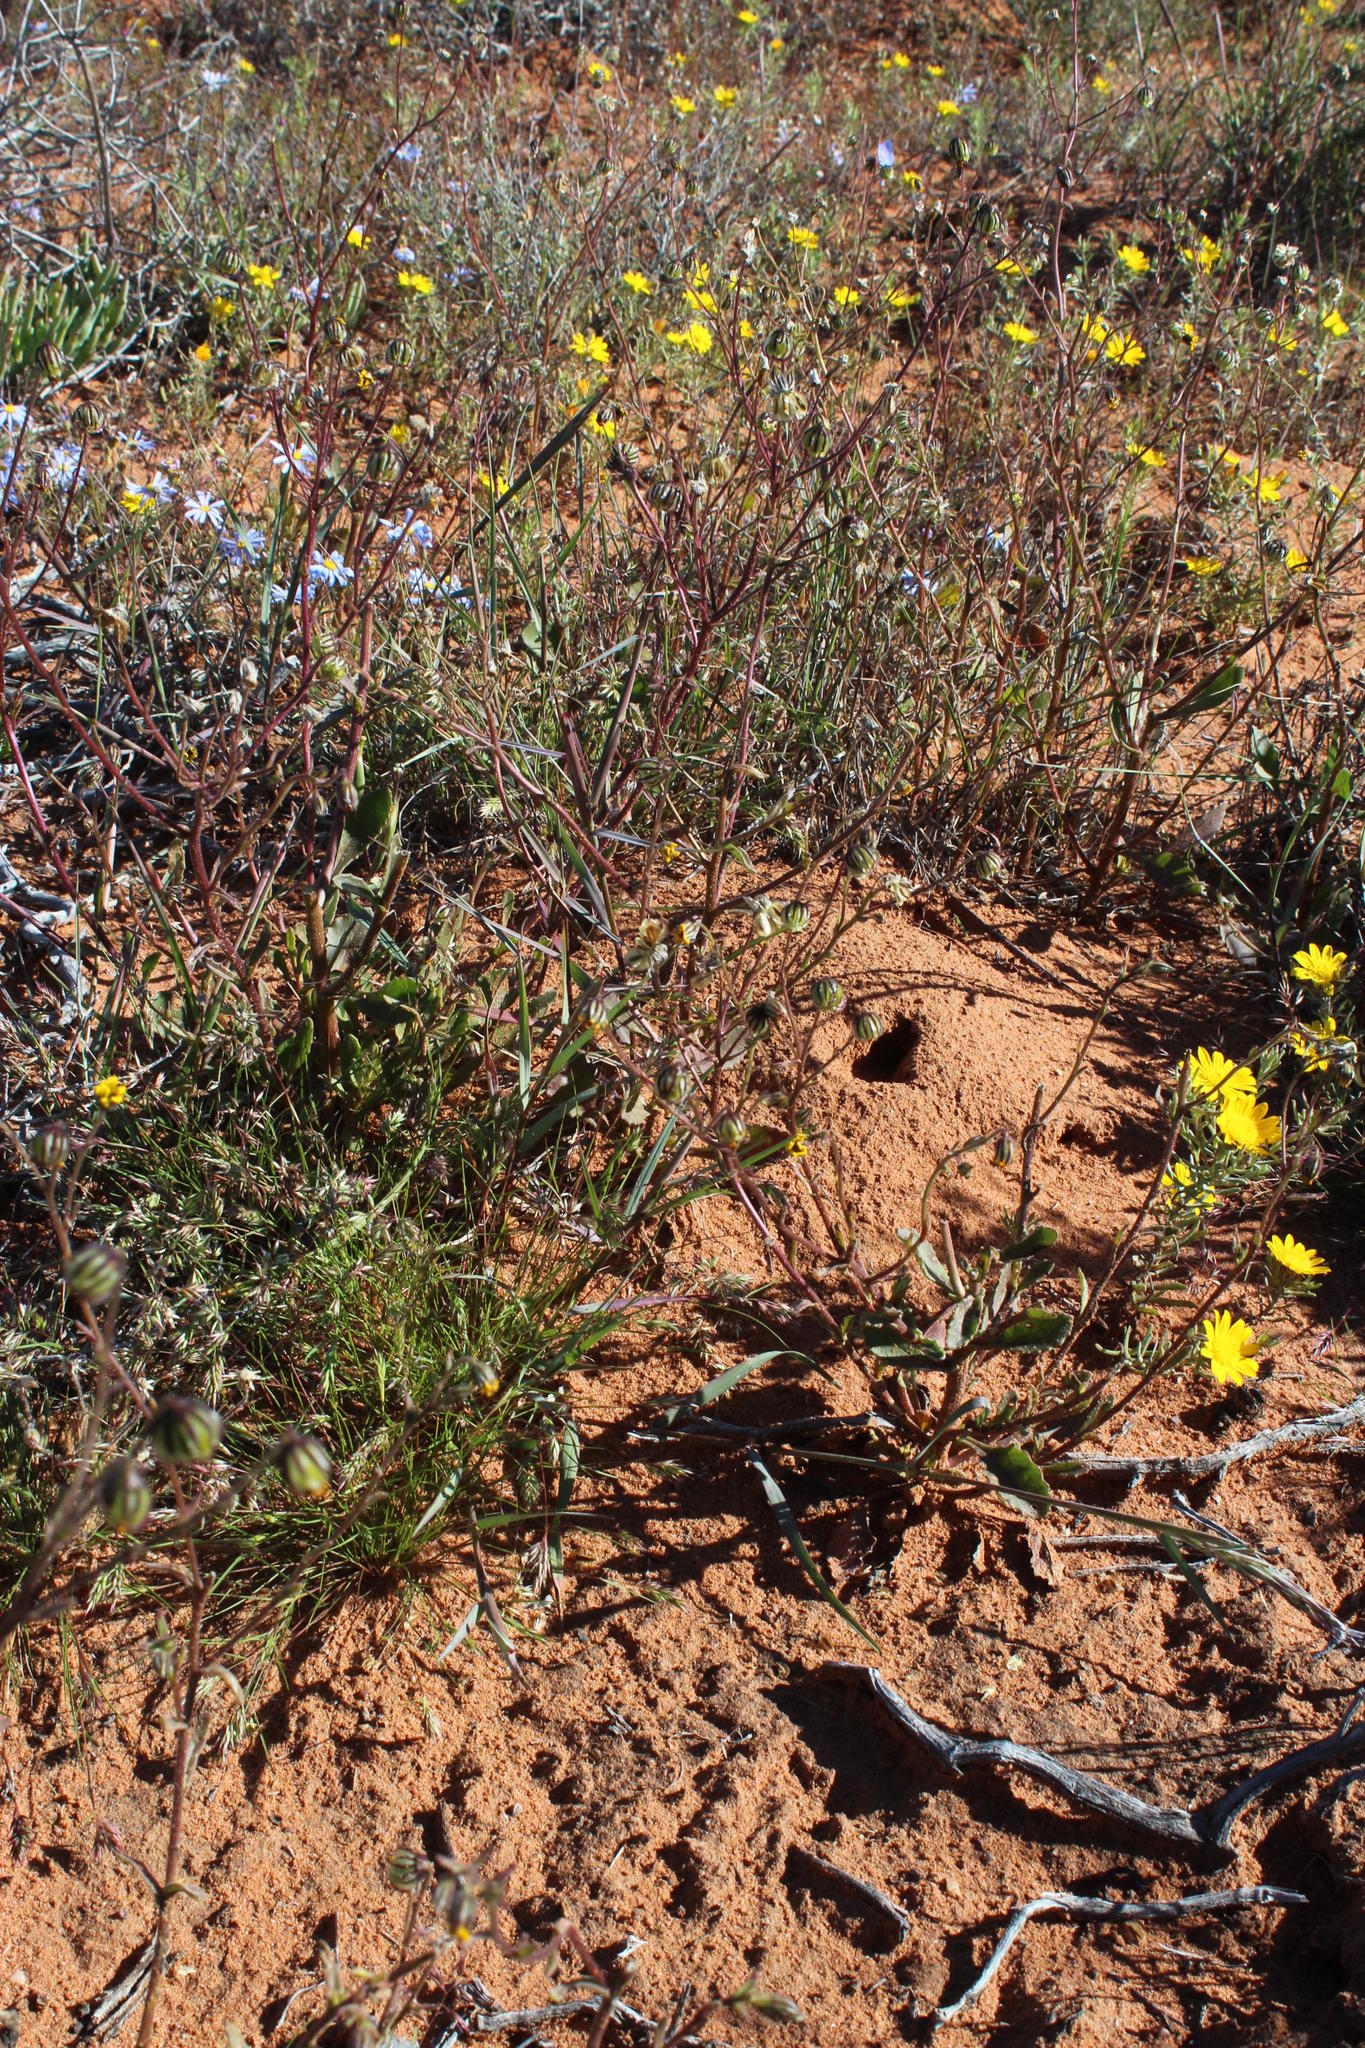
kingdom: Plantae
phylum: Tracheophyta
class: Magnoliopsida
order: Asterales
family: Asteraceae
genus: Osteospermum
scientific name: Osteospermum monstrosum
